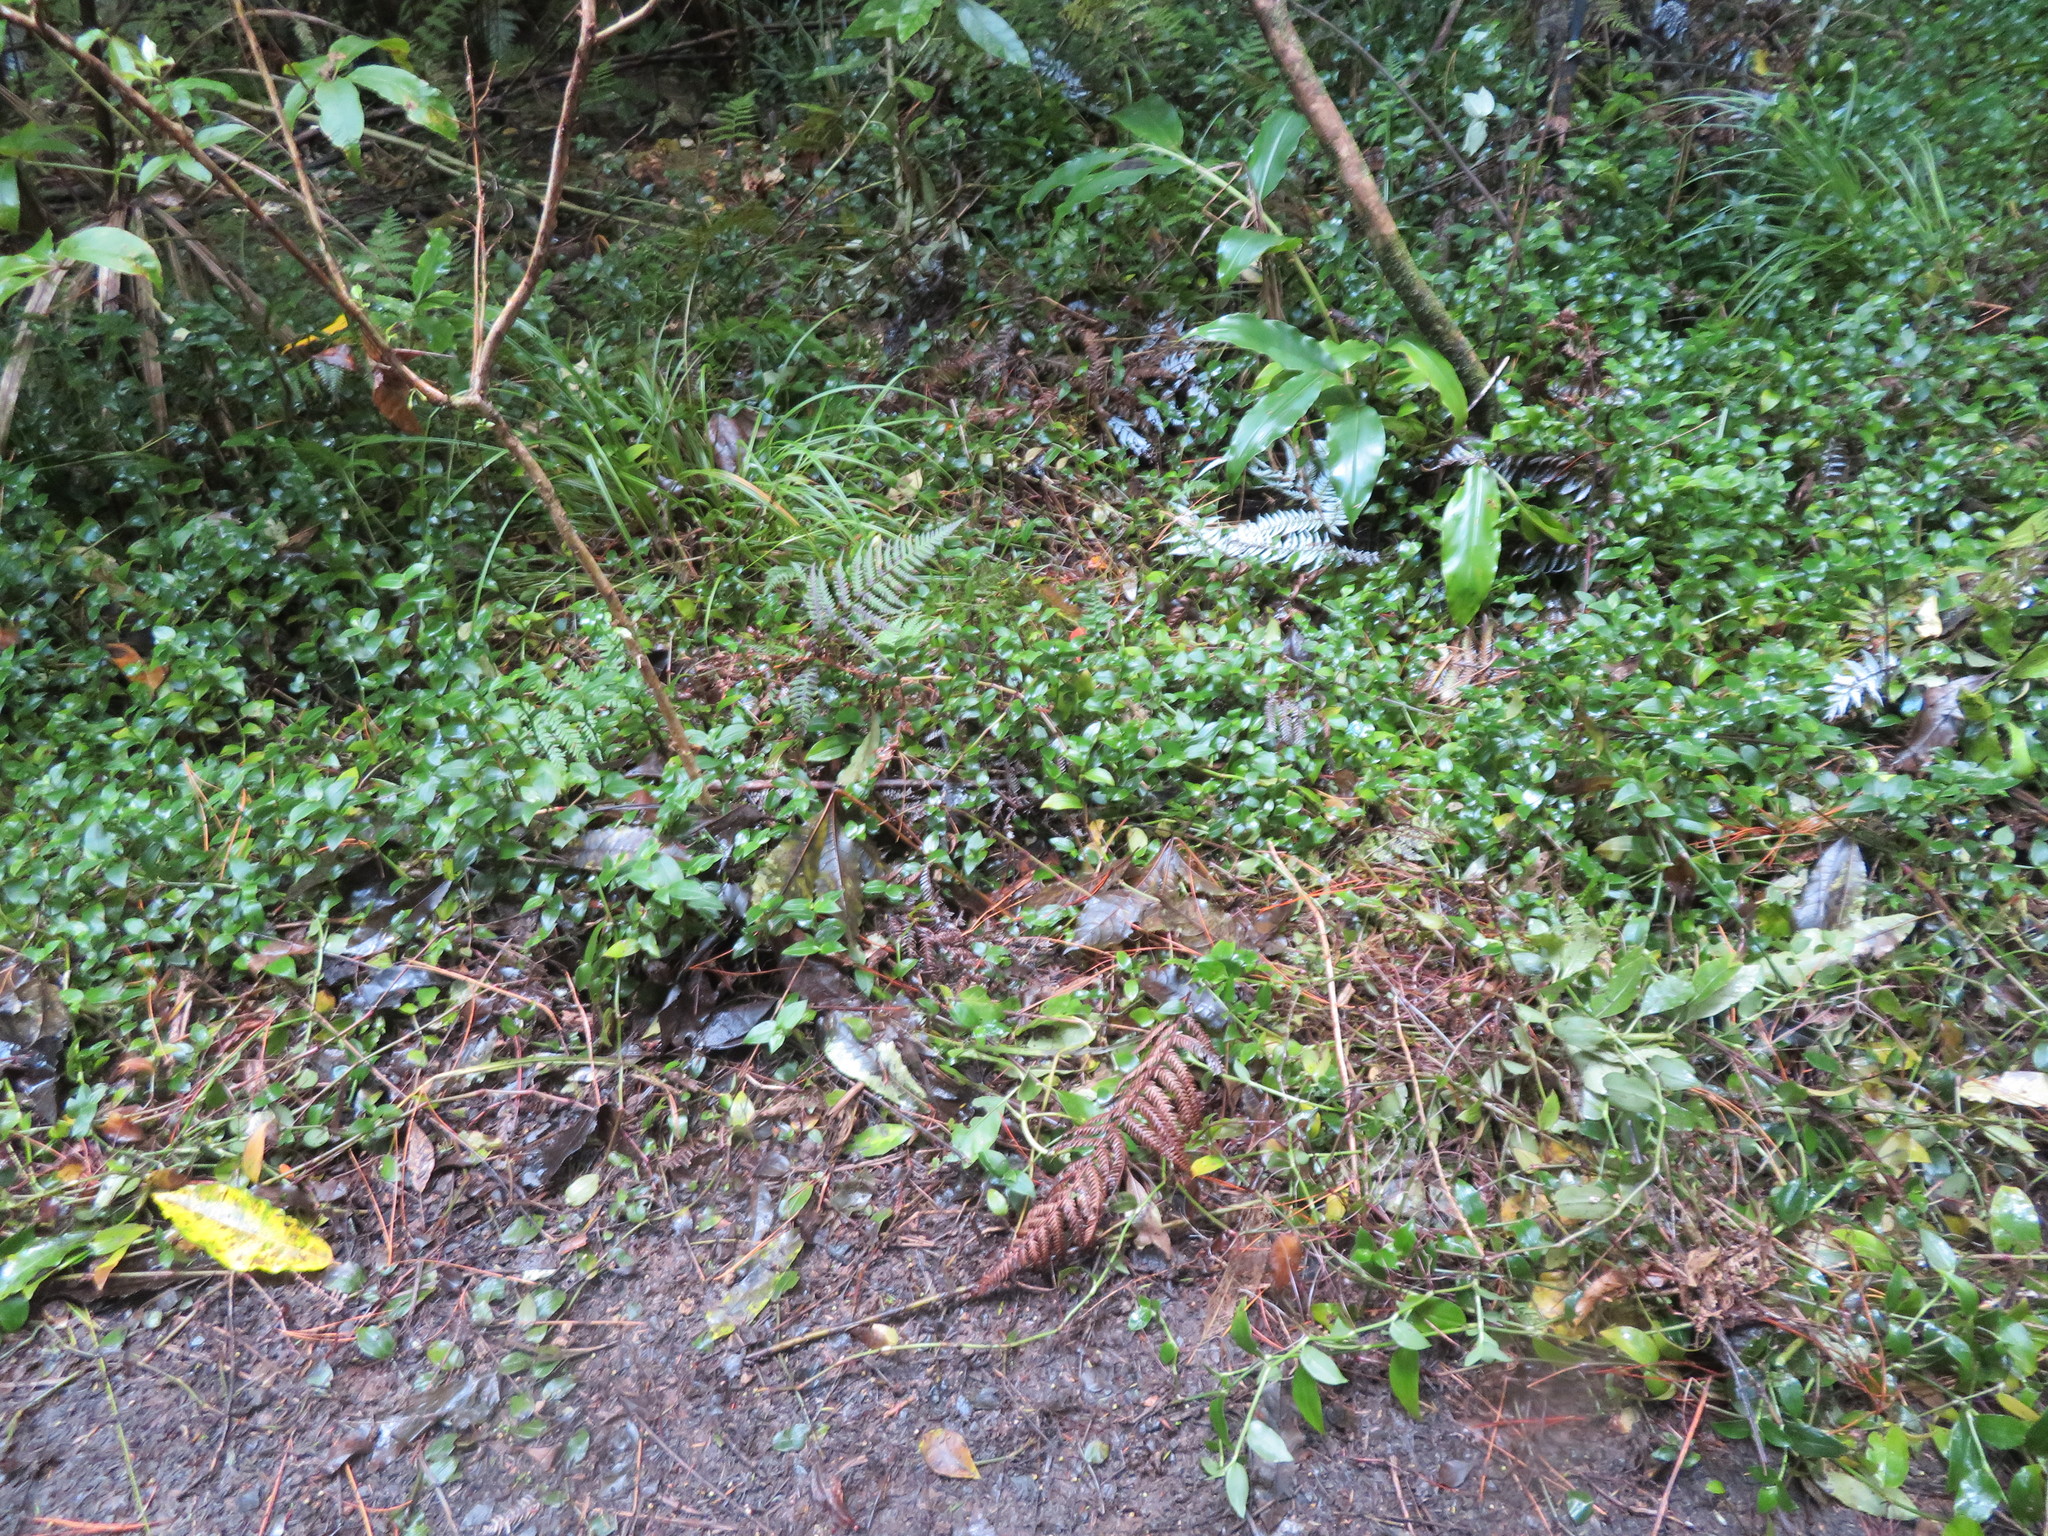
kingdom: Plantae
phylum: Tracheophyta
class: Liliopsida
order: Zingiberales
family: Zingiberaceae
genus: Hedychium
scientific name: Hedychium gardnerianum
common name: Himalayan ginger
